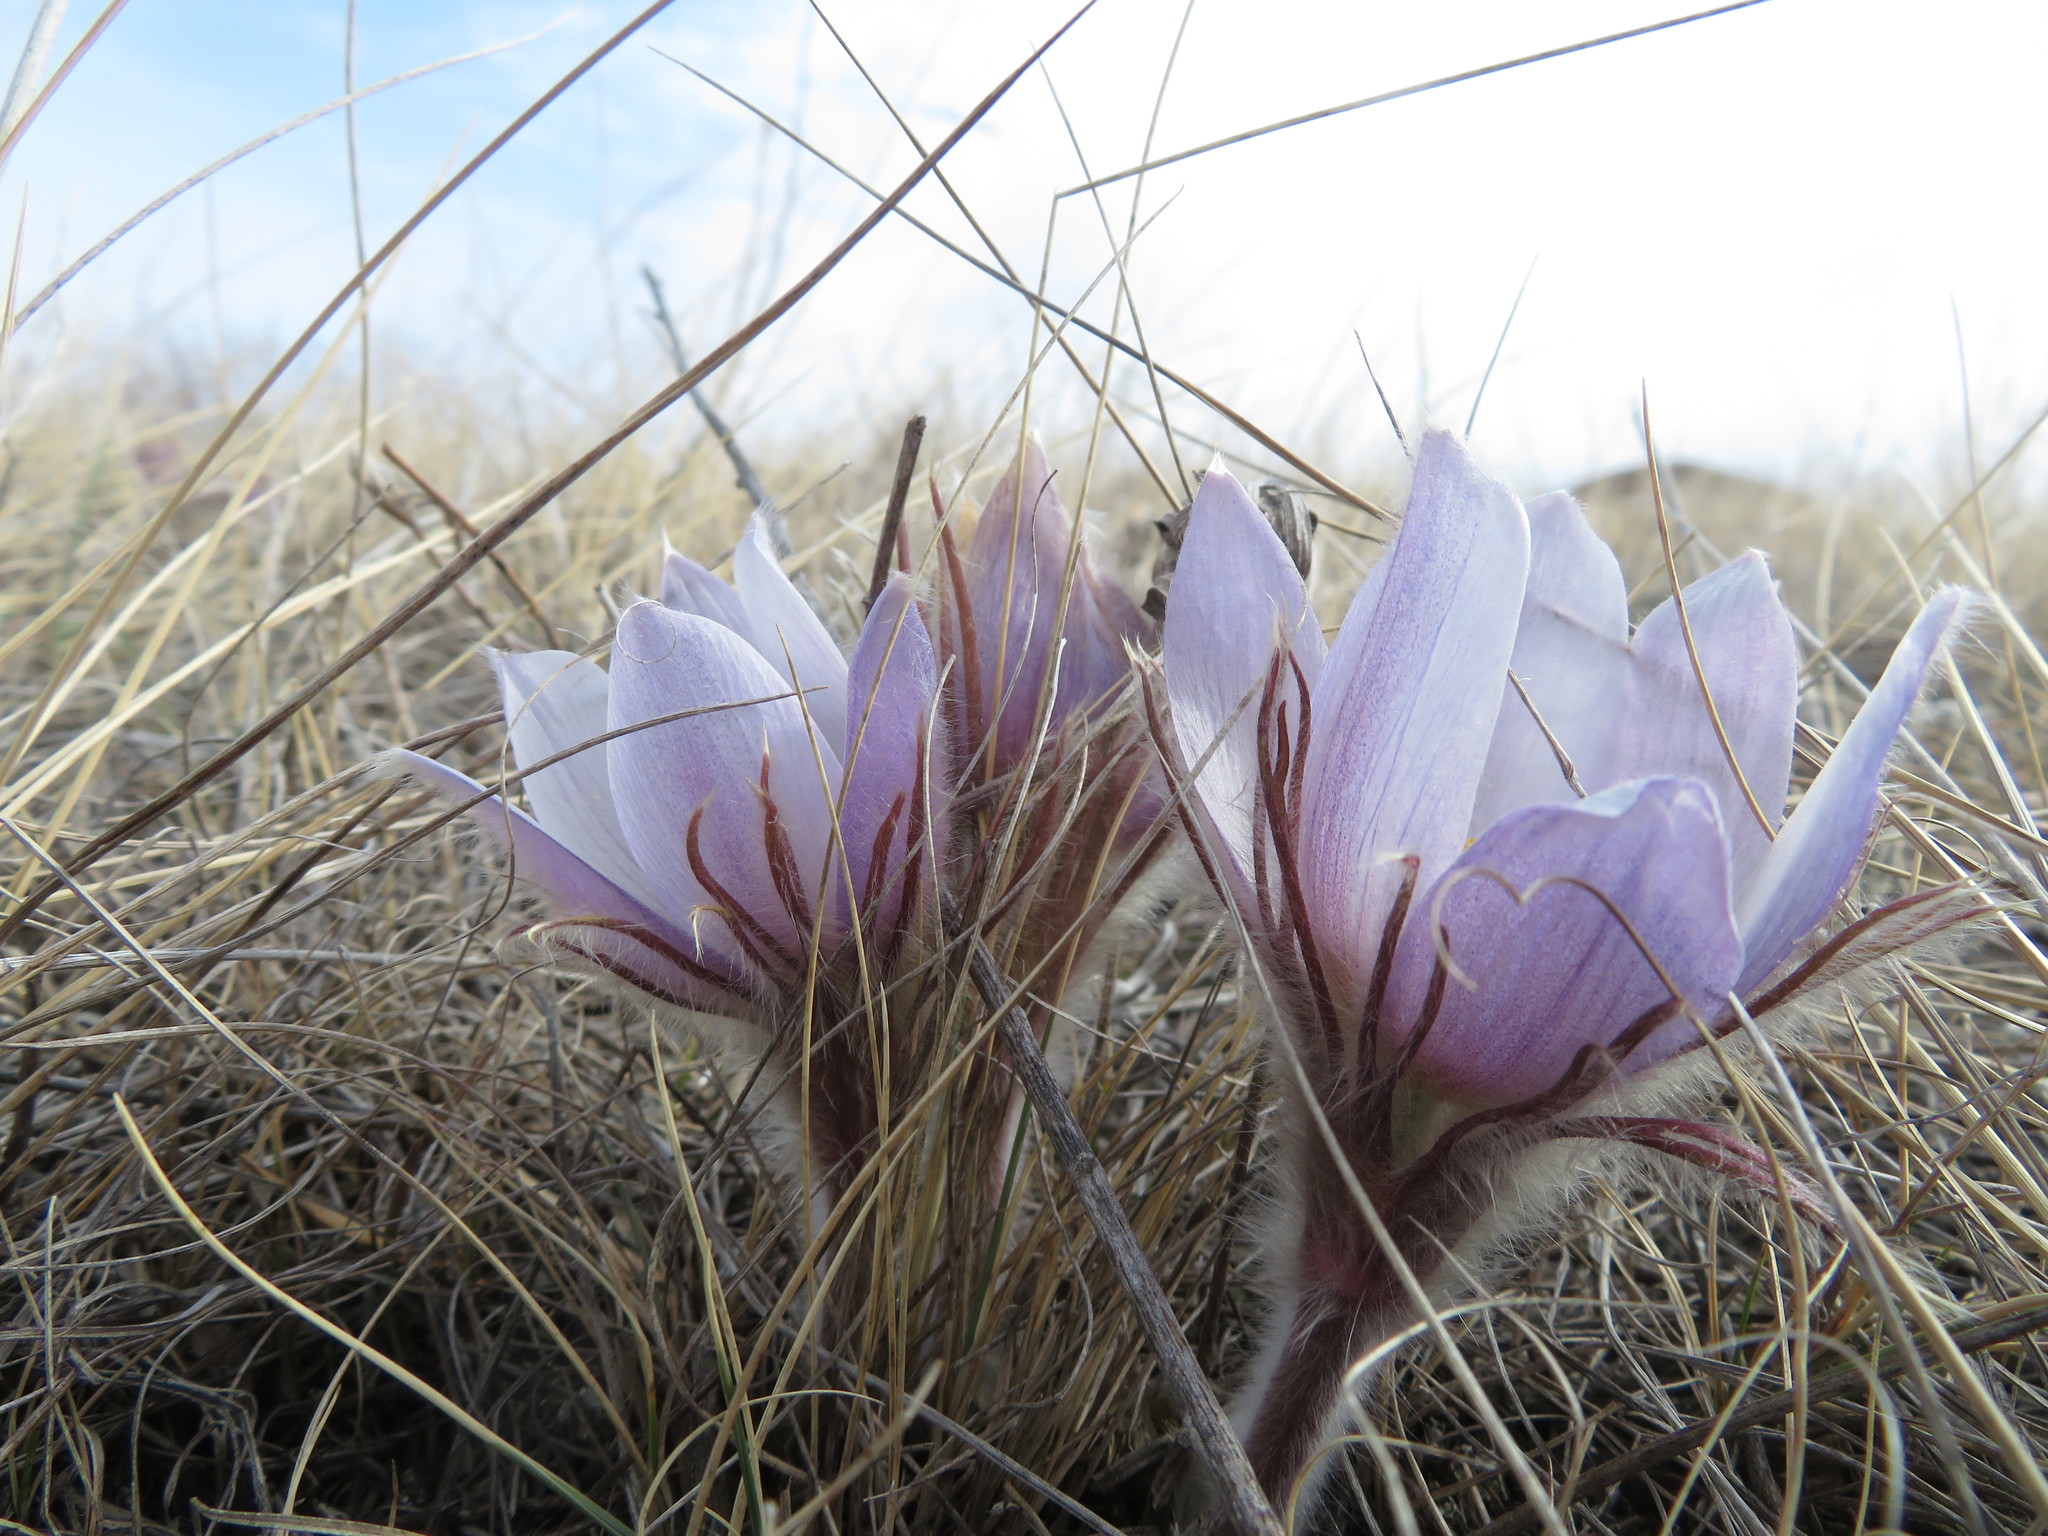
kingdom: Plantae
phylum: Tracheophyta
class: Magnoliopsida
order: Ranunculales
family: Ranunculaceae
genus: Pulsatilla
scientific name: Pulsatilla nuttalliana
